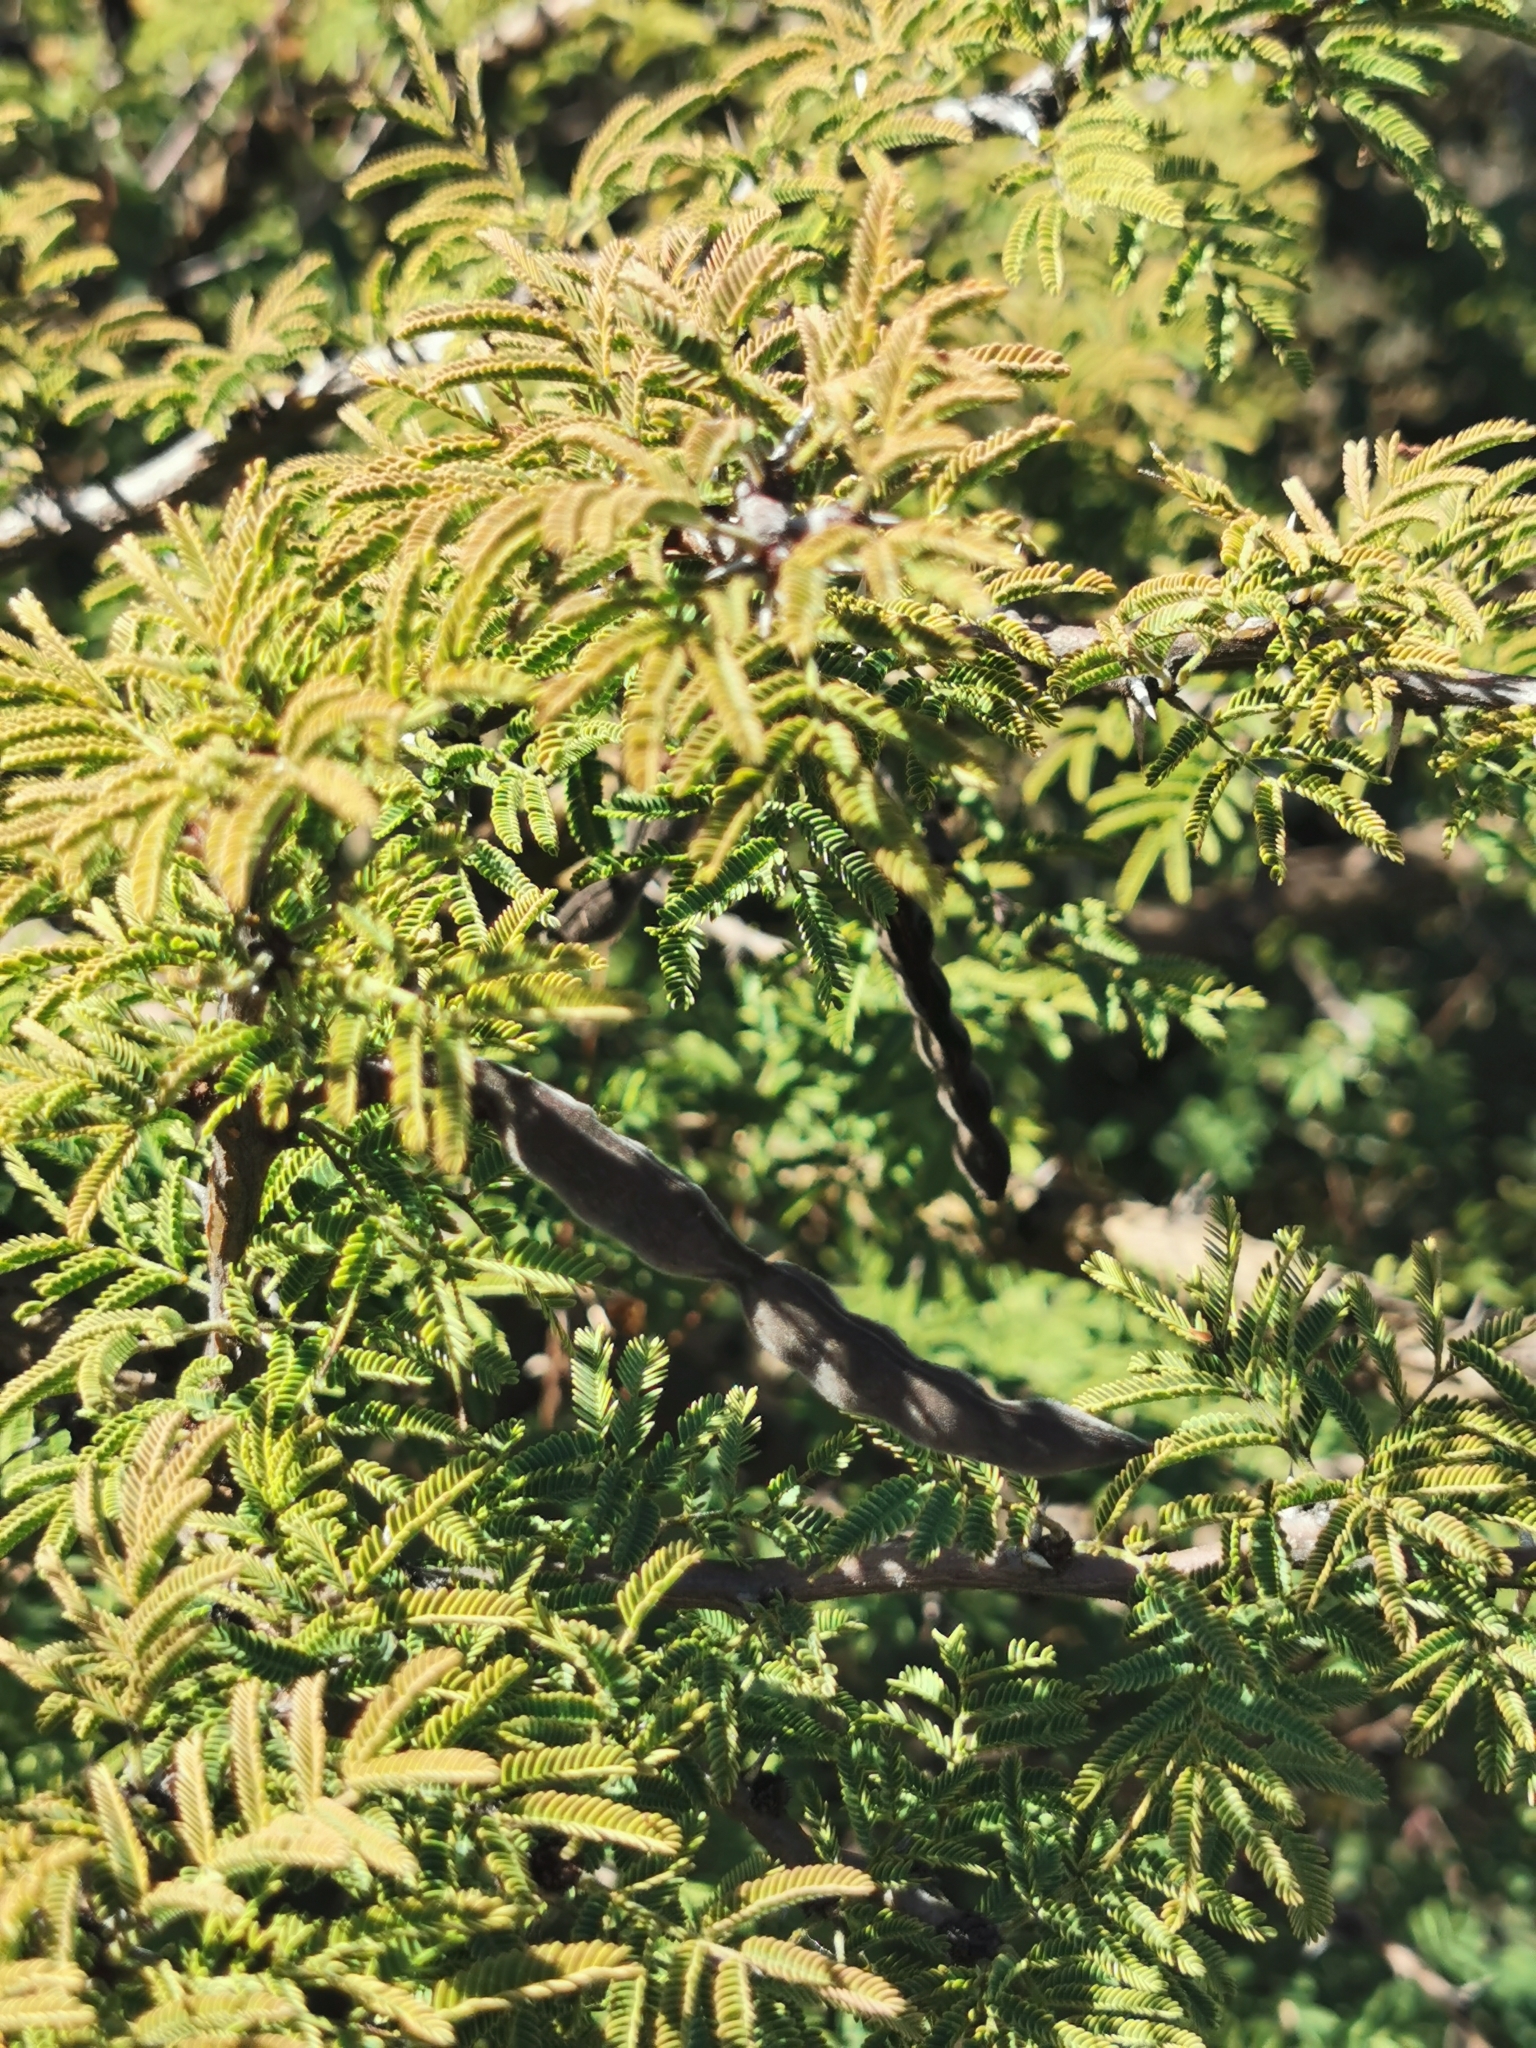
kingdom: Plantae
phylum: Tracheophyta
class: Magnoliopsida
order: Fabales
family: Fabaceae
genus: Vachellia
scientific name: Vachellia schaffneri
